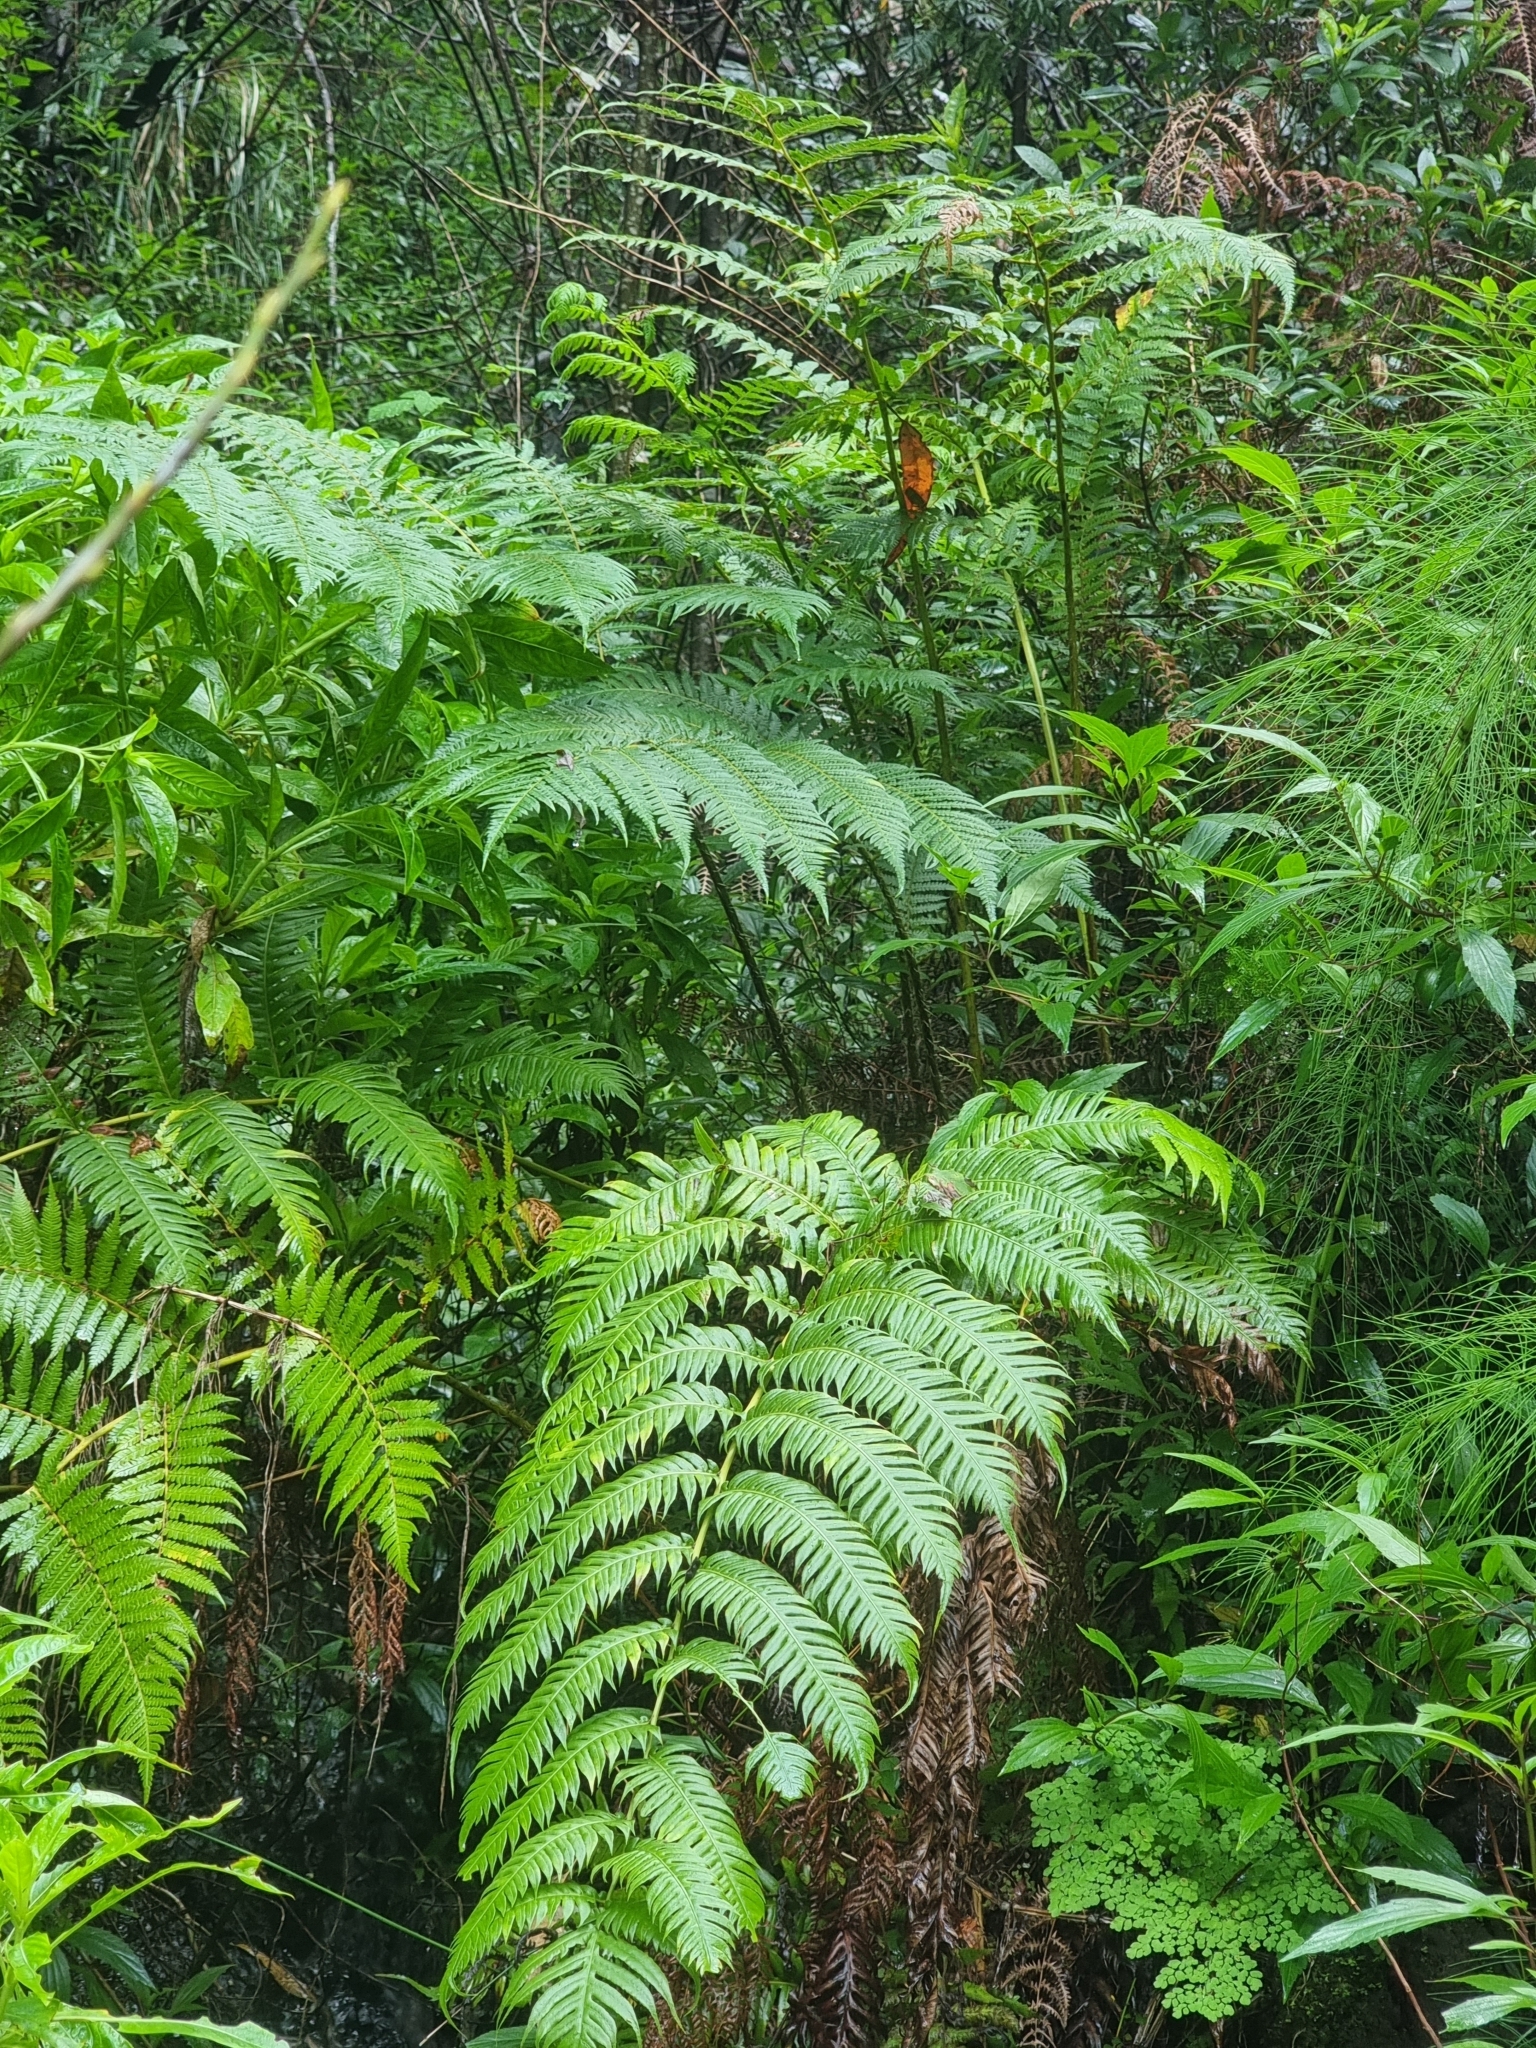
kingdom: Plantae
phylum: Tracheophyta
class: Polypodiopsida
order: Polypodiales
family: Blechnaceae
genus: Woodwardia
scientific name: Woodwardia radicans
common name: Rooting chainfern
